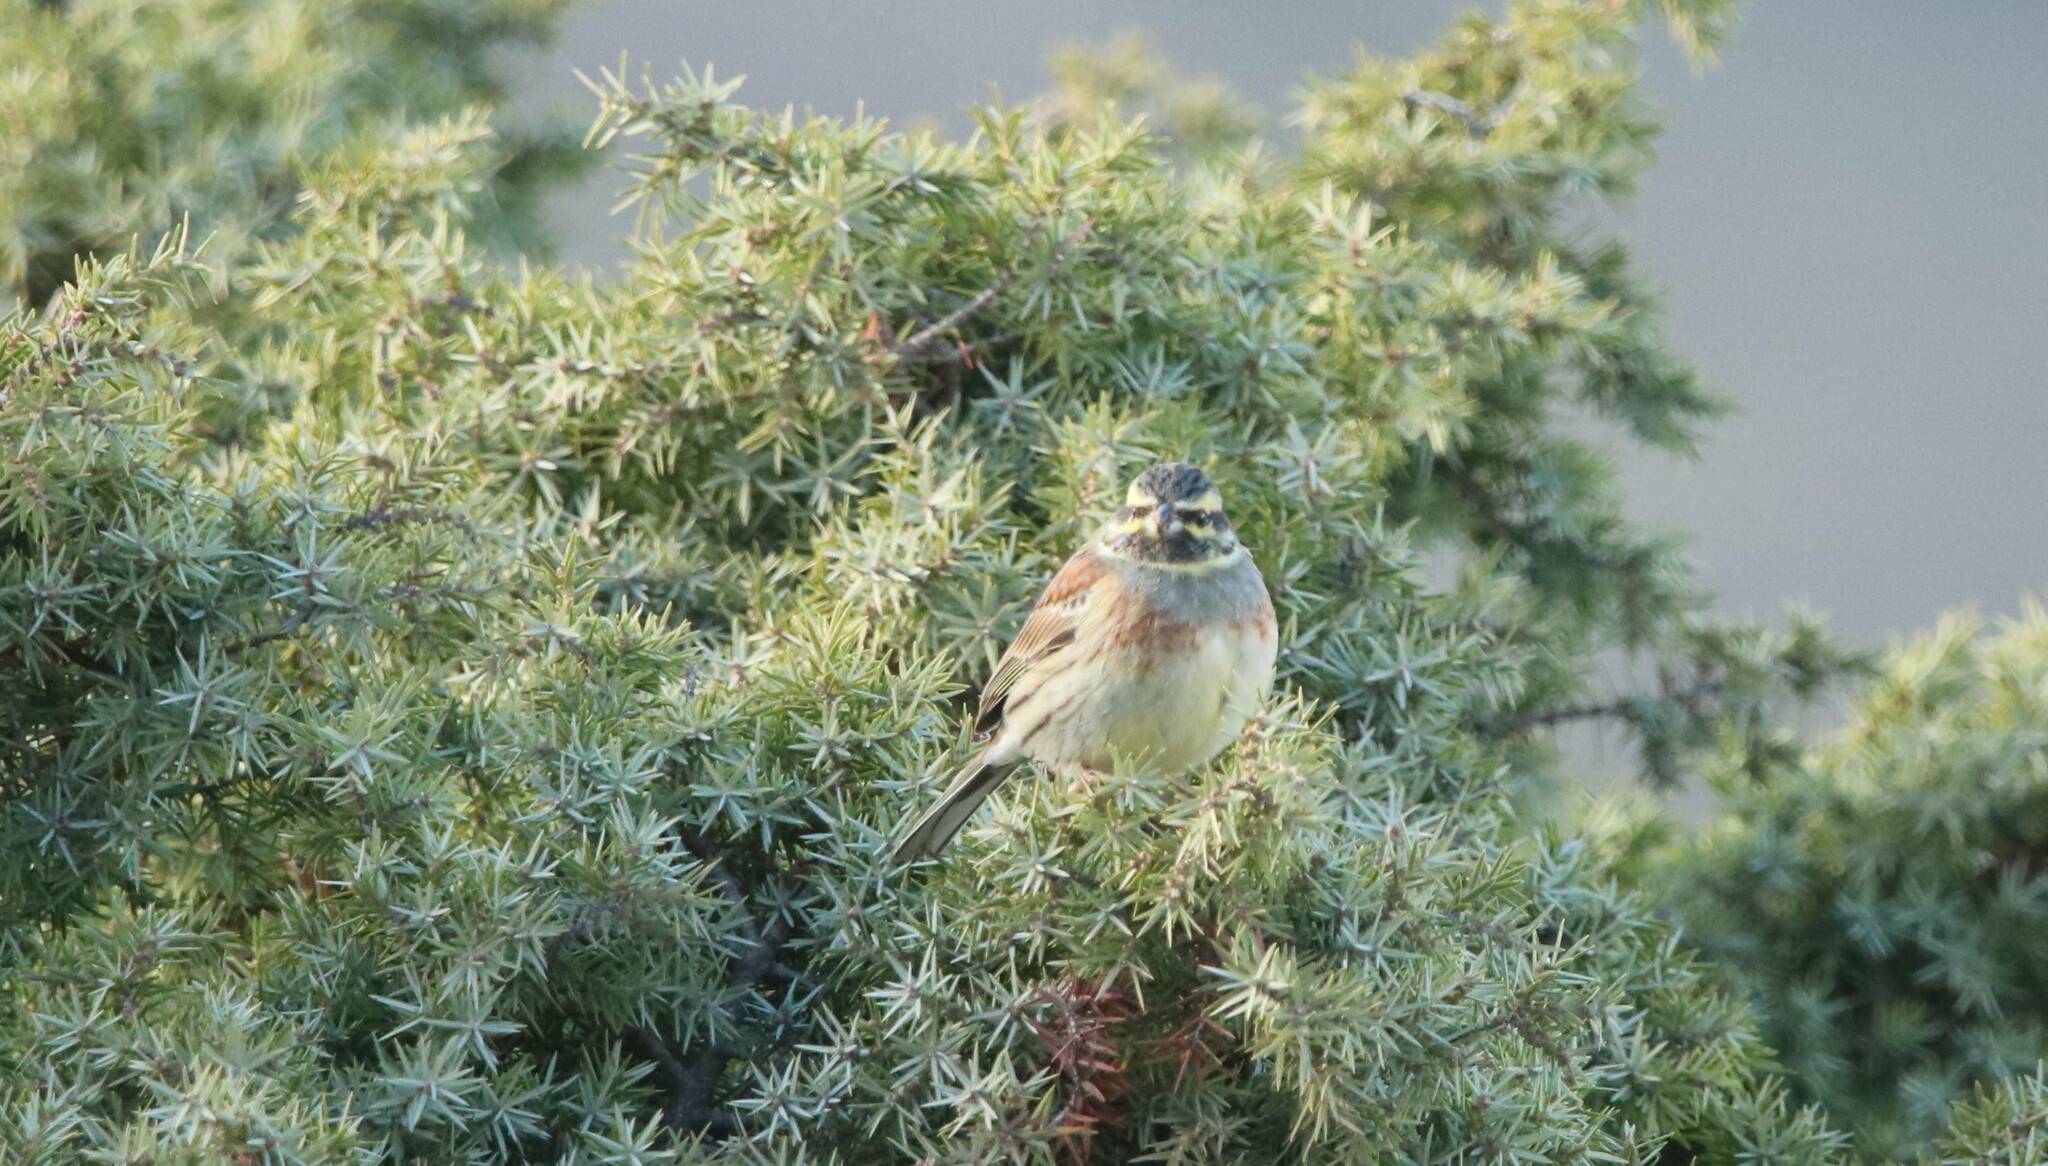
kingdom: Animalia
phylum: Chordata
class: Aves
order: Passeriformes
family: Emberizidae
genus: Emberiza
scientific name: Emberiza cirlus
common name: Cirl bunting
